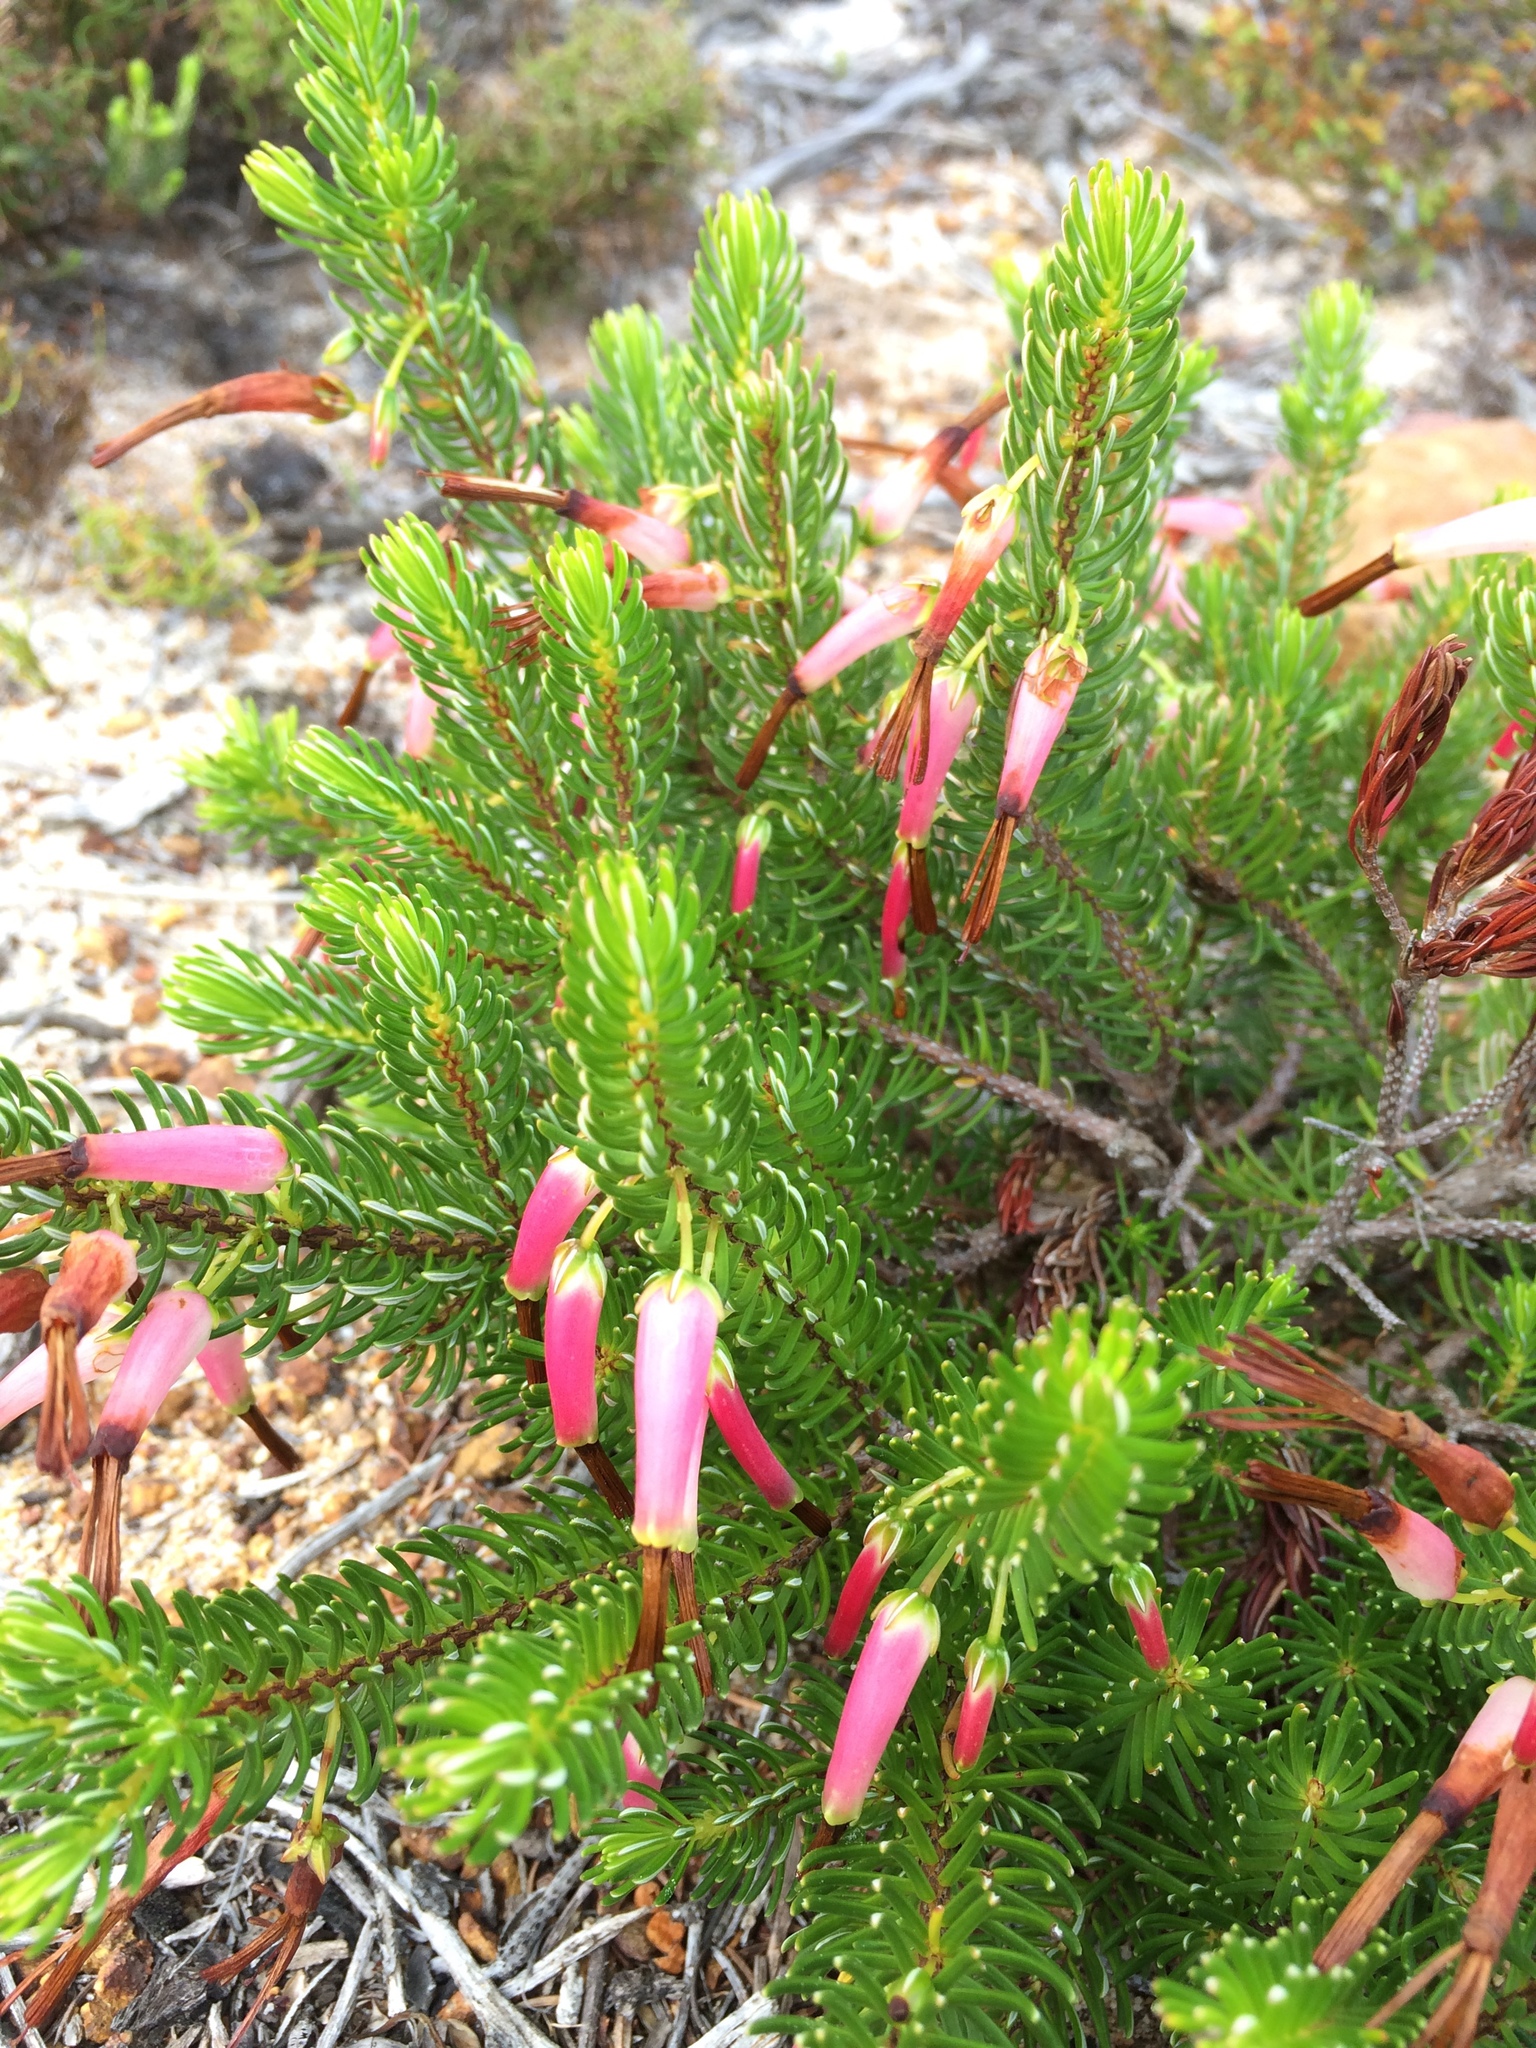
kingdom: Plantae
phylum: Tracheophyta
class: Magnoliopsida
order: Ericales
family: Ericaceae
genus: Erica
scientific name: Erica plukenetii
